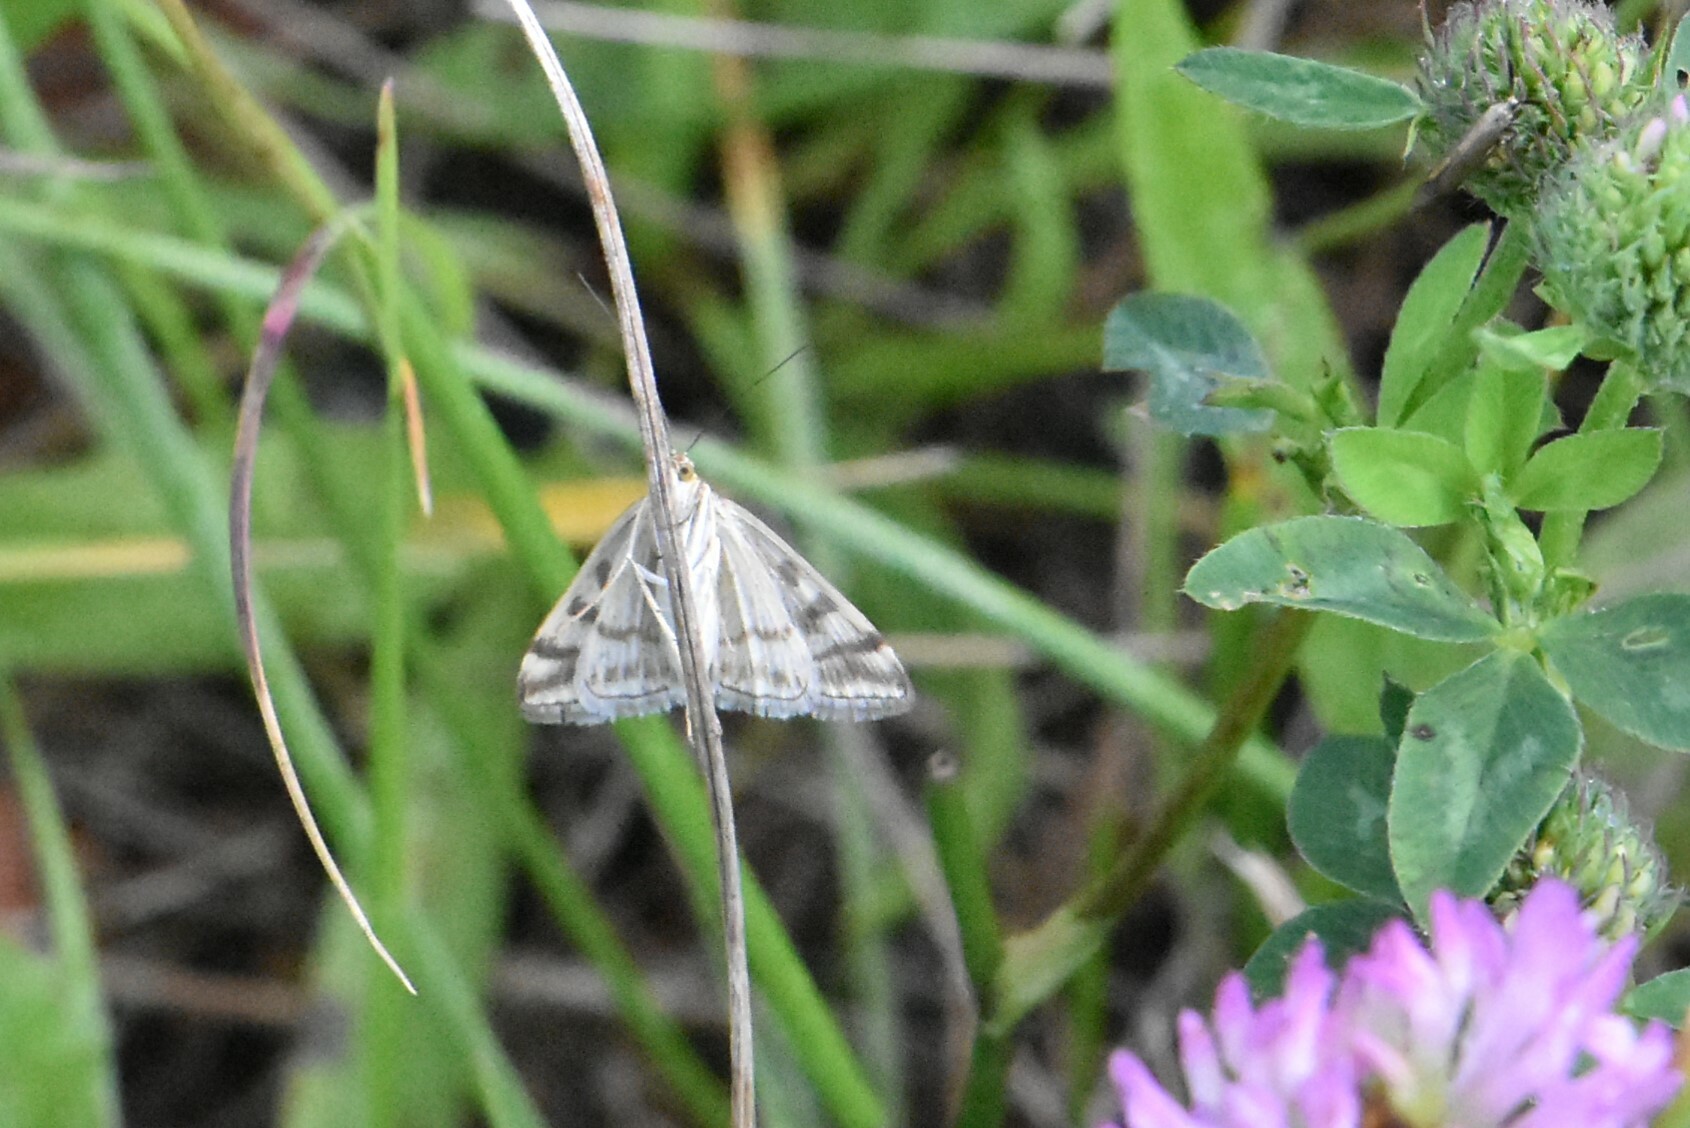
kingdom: Animalia
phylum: Arthropoda
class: Insecta
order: Lepidoptera
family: Crambidae
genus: Loxostege
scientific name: Loxostege sticticalis
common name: Crambid moth
